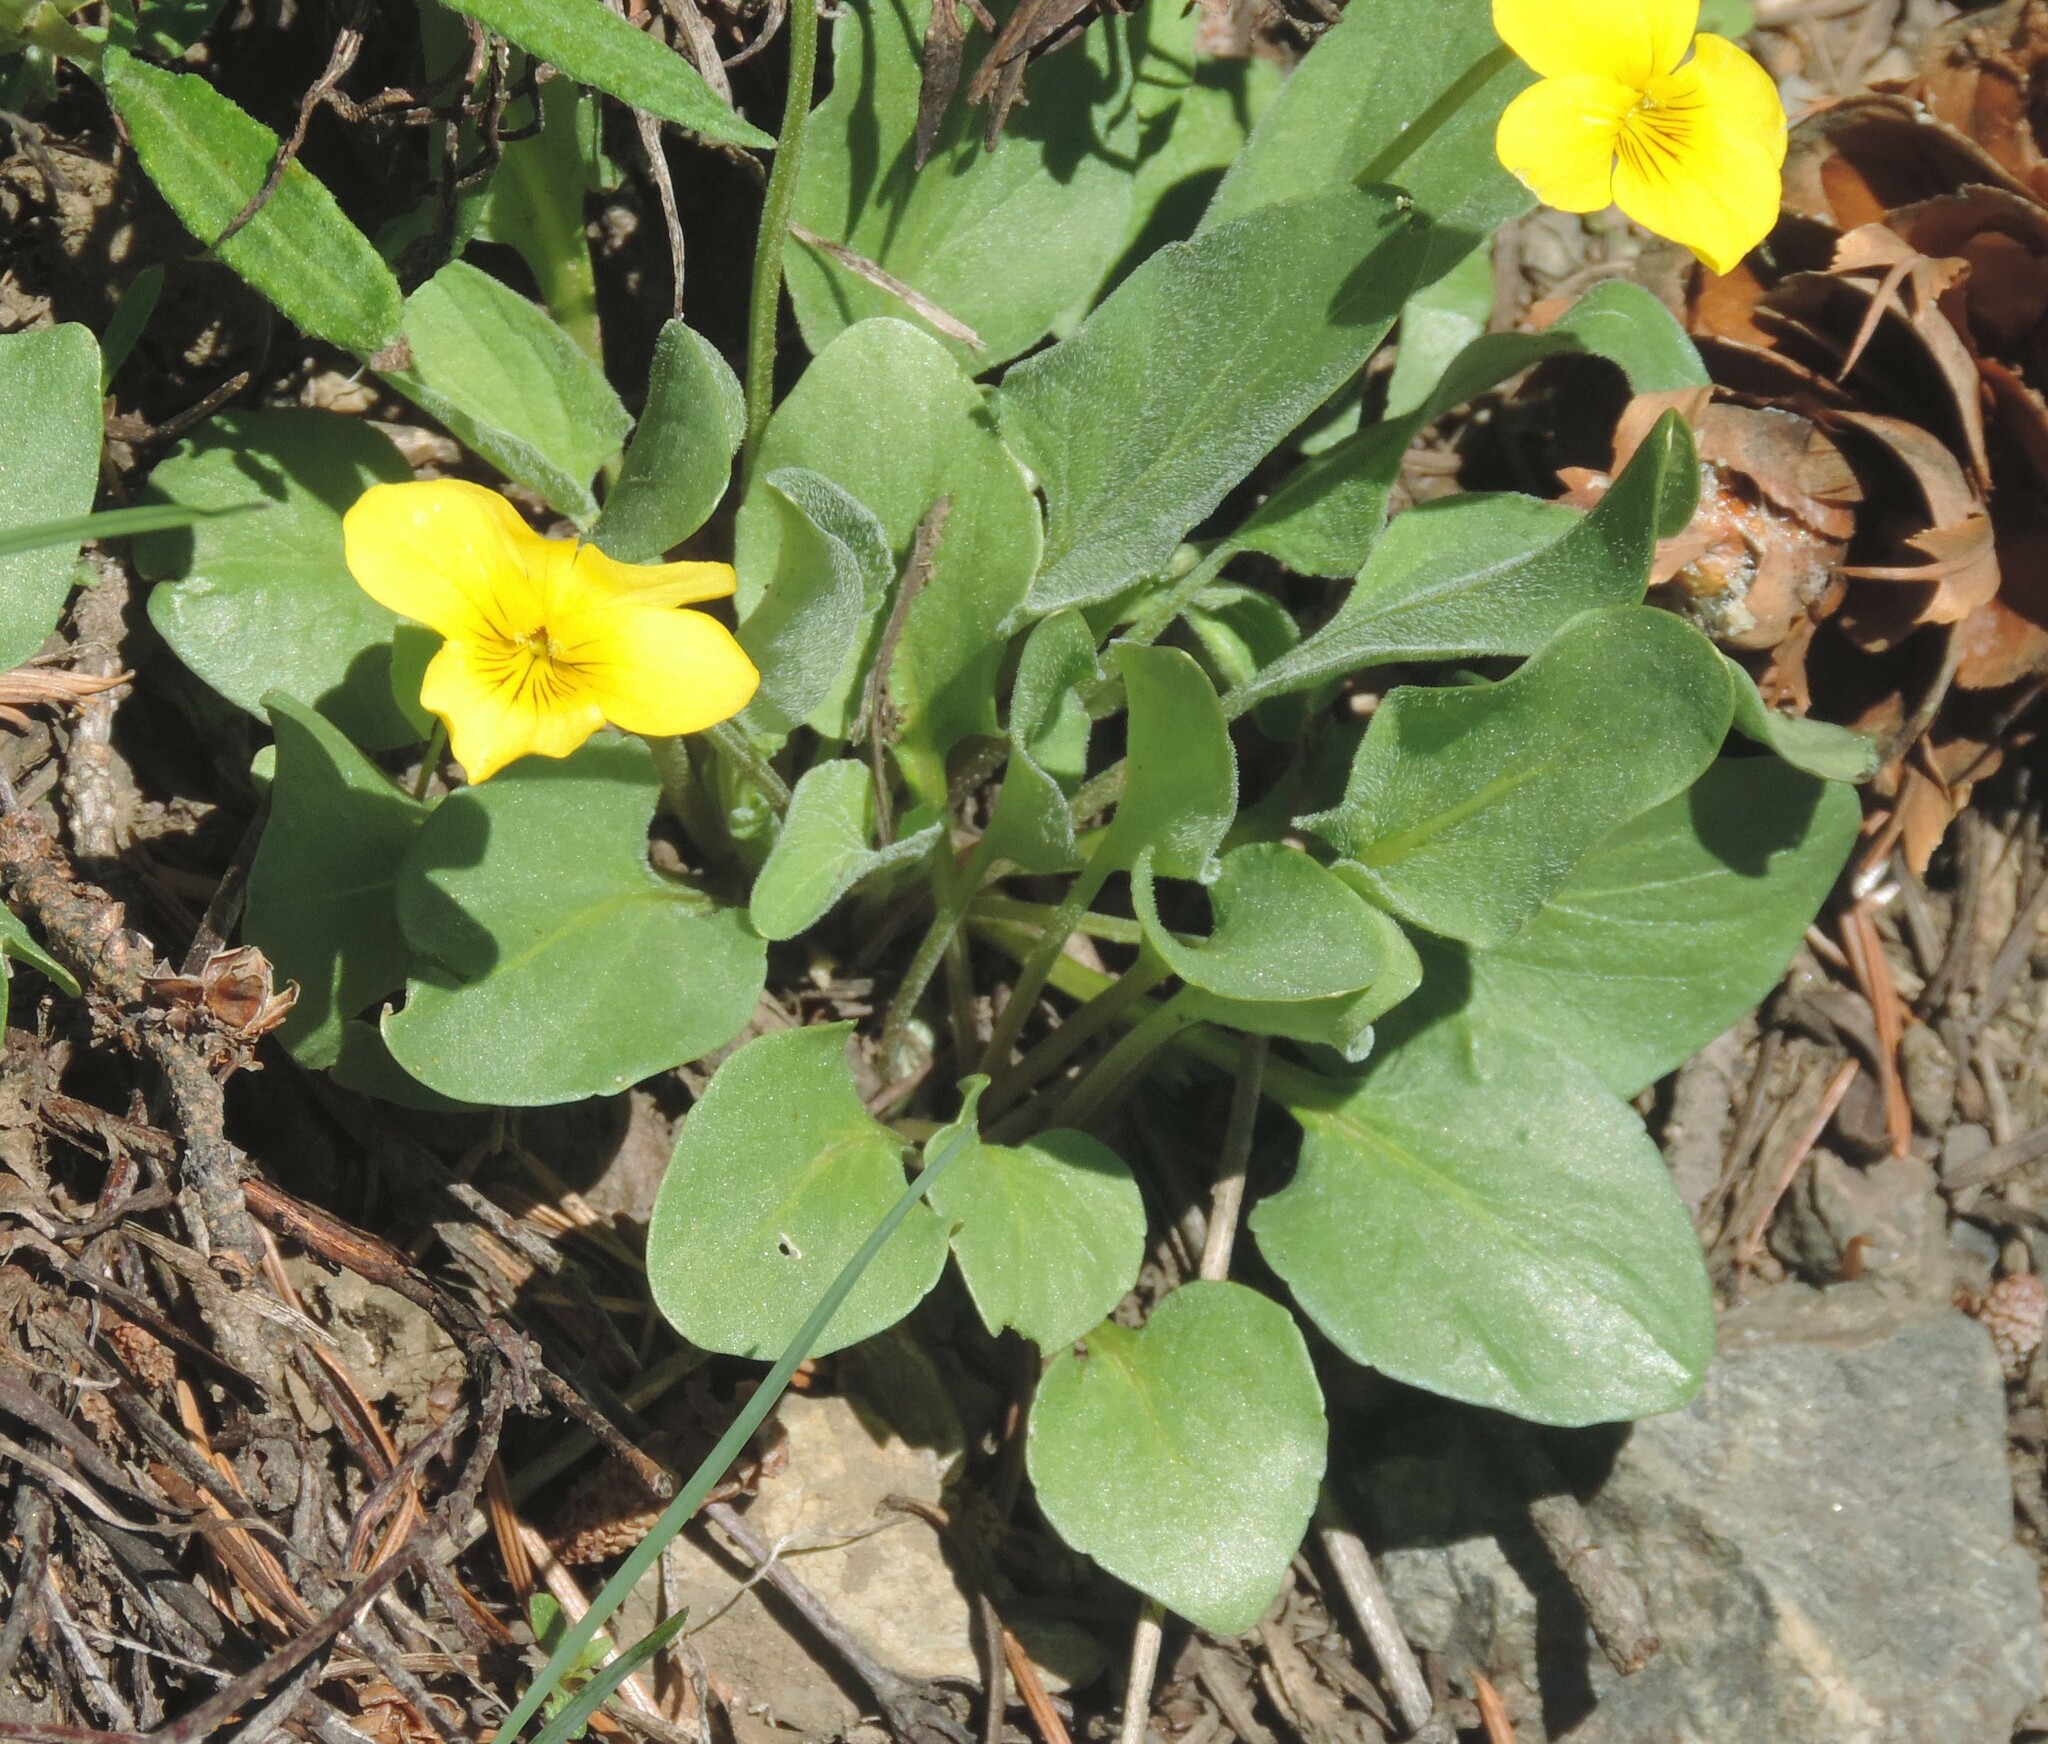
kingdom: Plantae
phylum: Tracheophyta
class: Magnoliopsida
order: Malpighiales
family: Violaceae
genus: Viola
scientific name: Viola vallicola
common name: Valley violet
